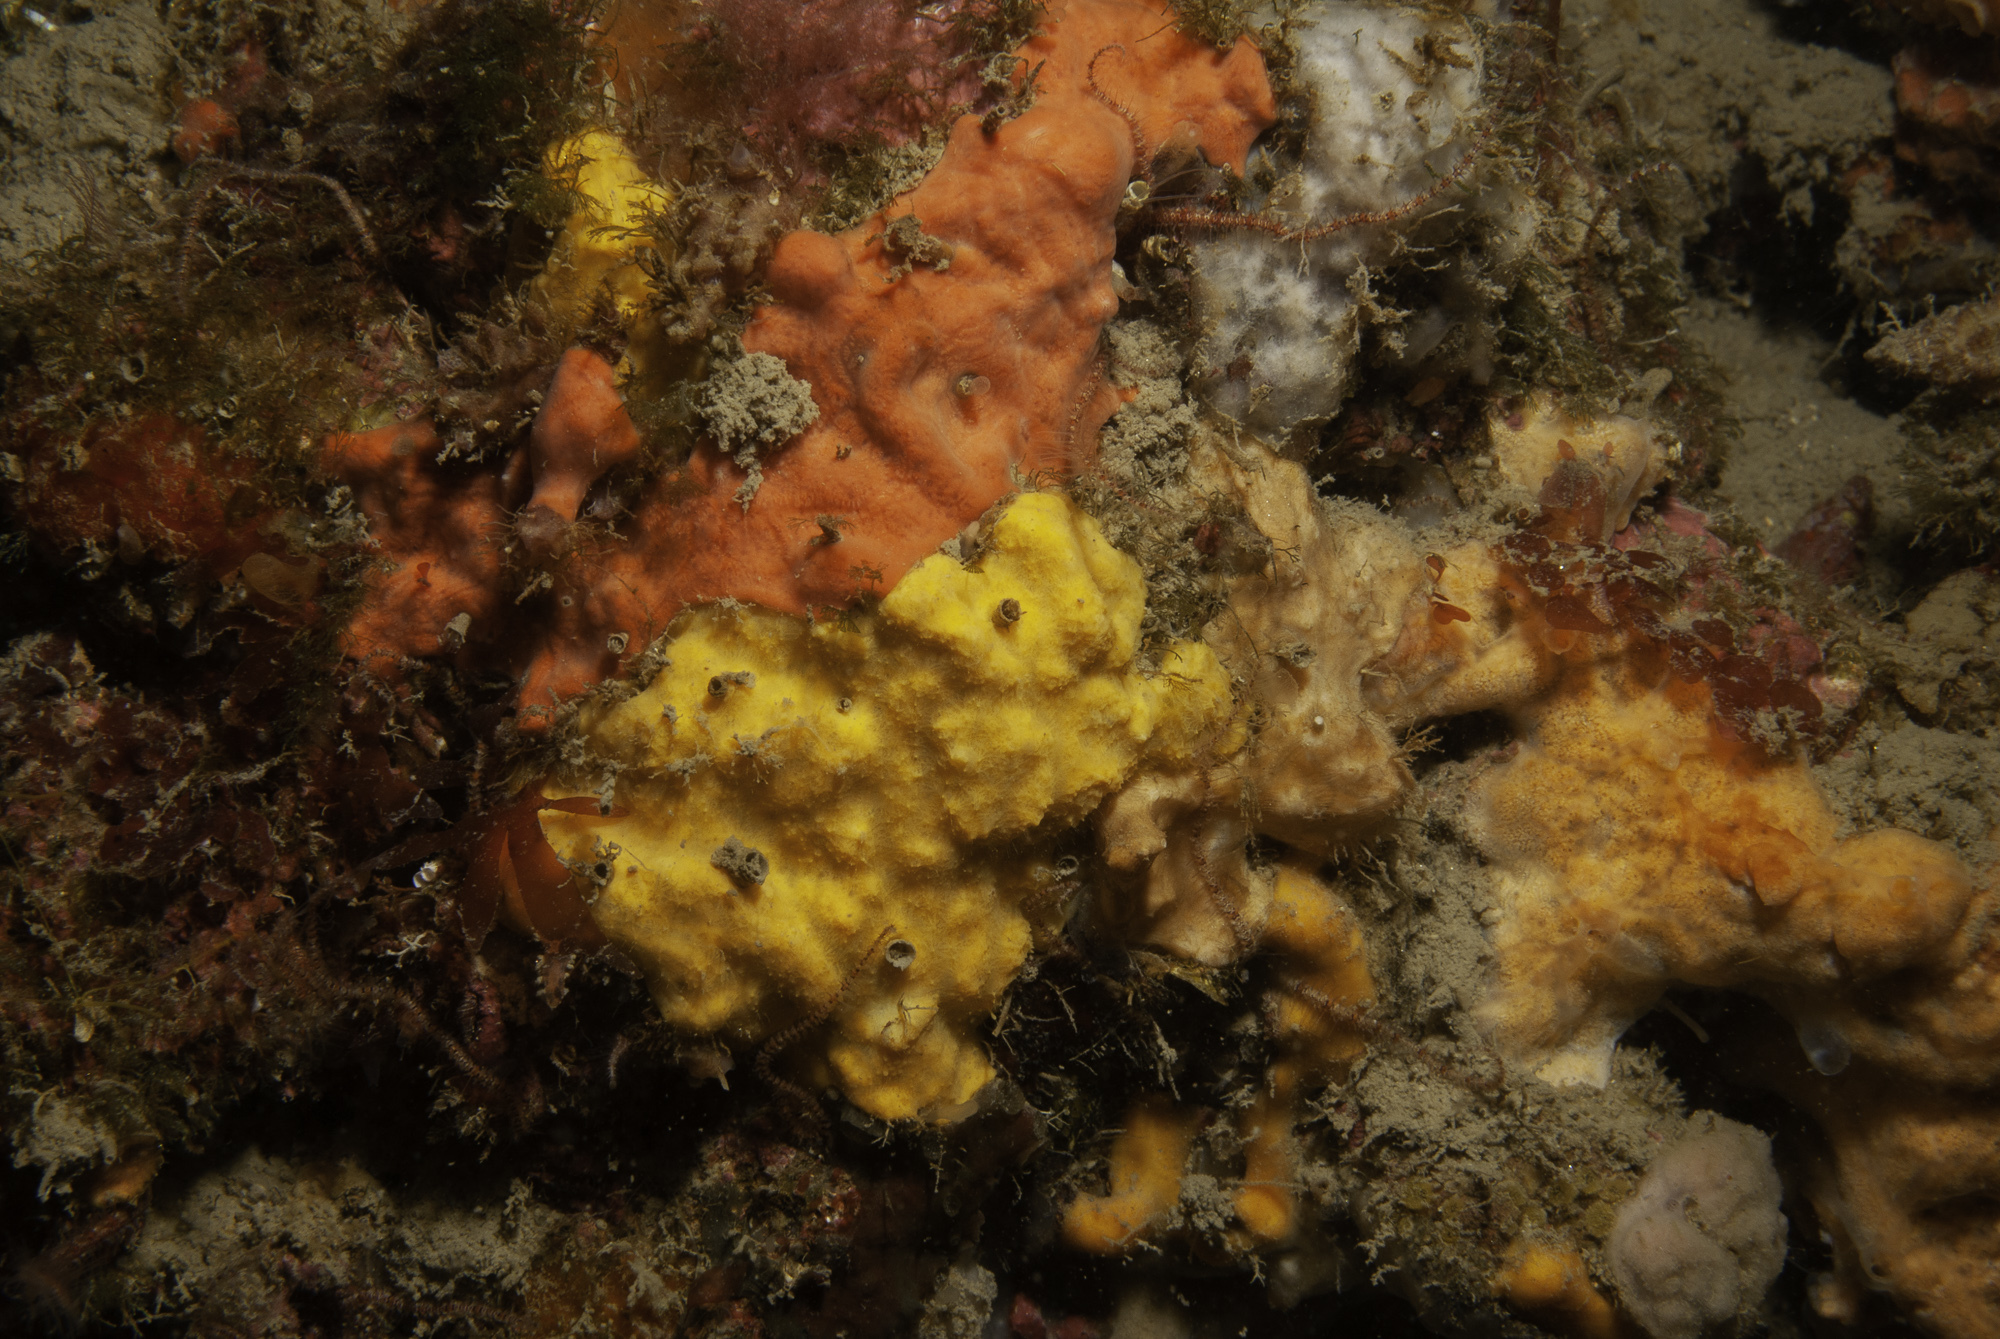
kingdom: Animalia
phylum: Porifera
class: Demospongiae
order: Agelasida
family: Hymerhabdiidae
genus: Prosuberites
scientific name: Prosuberites longispinus
